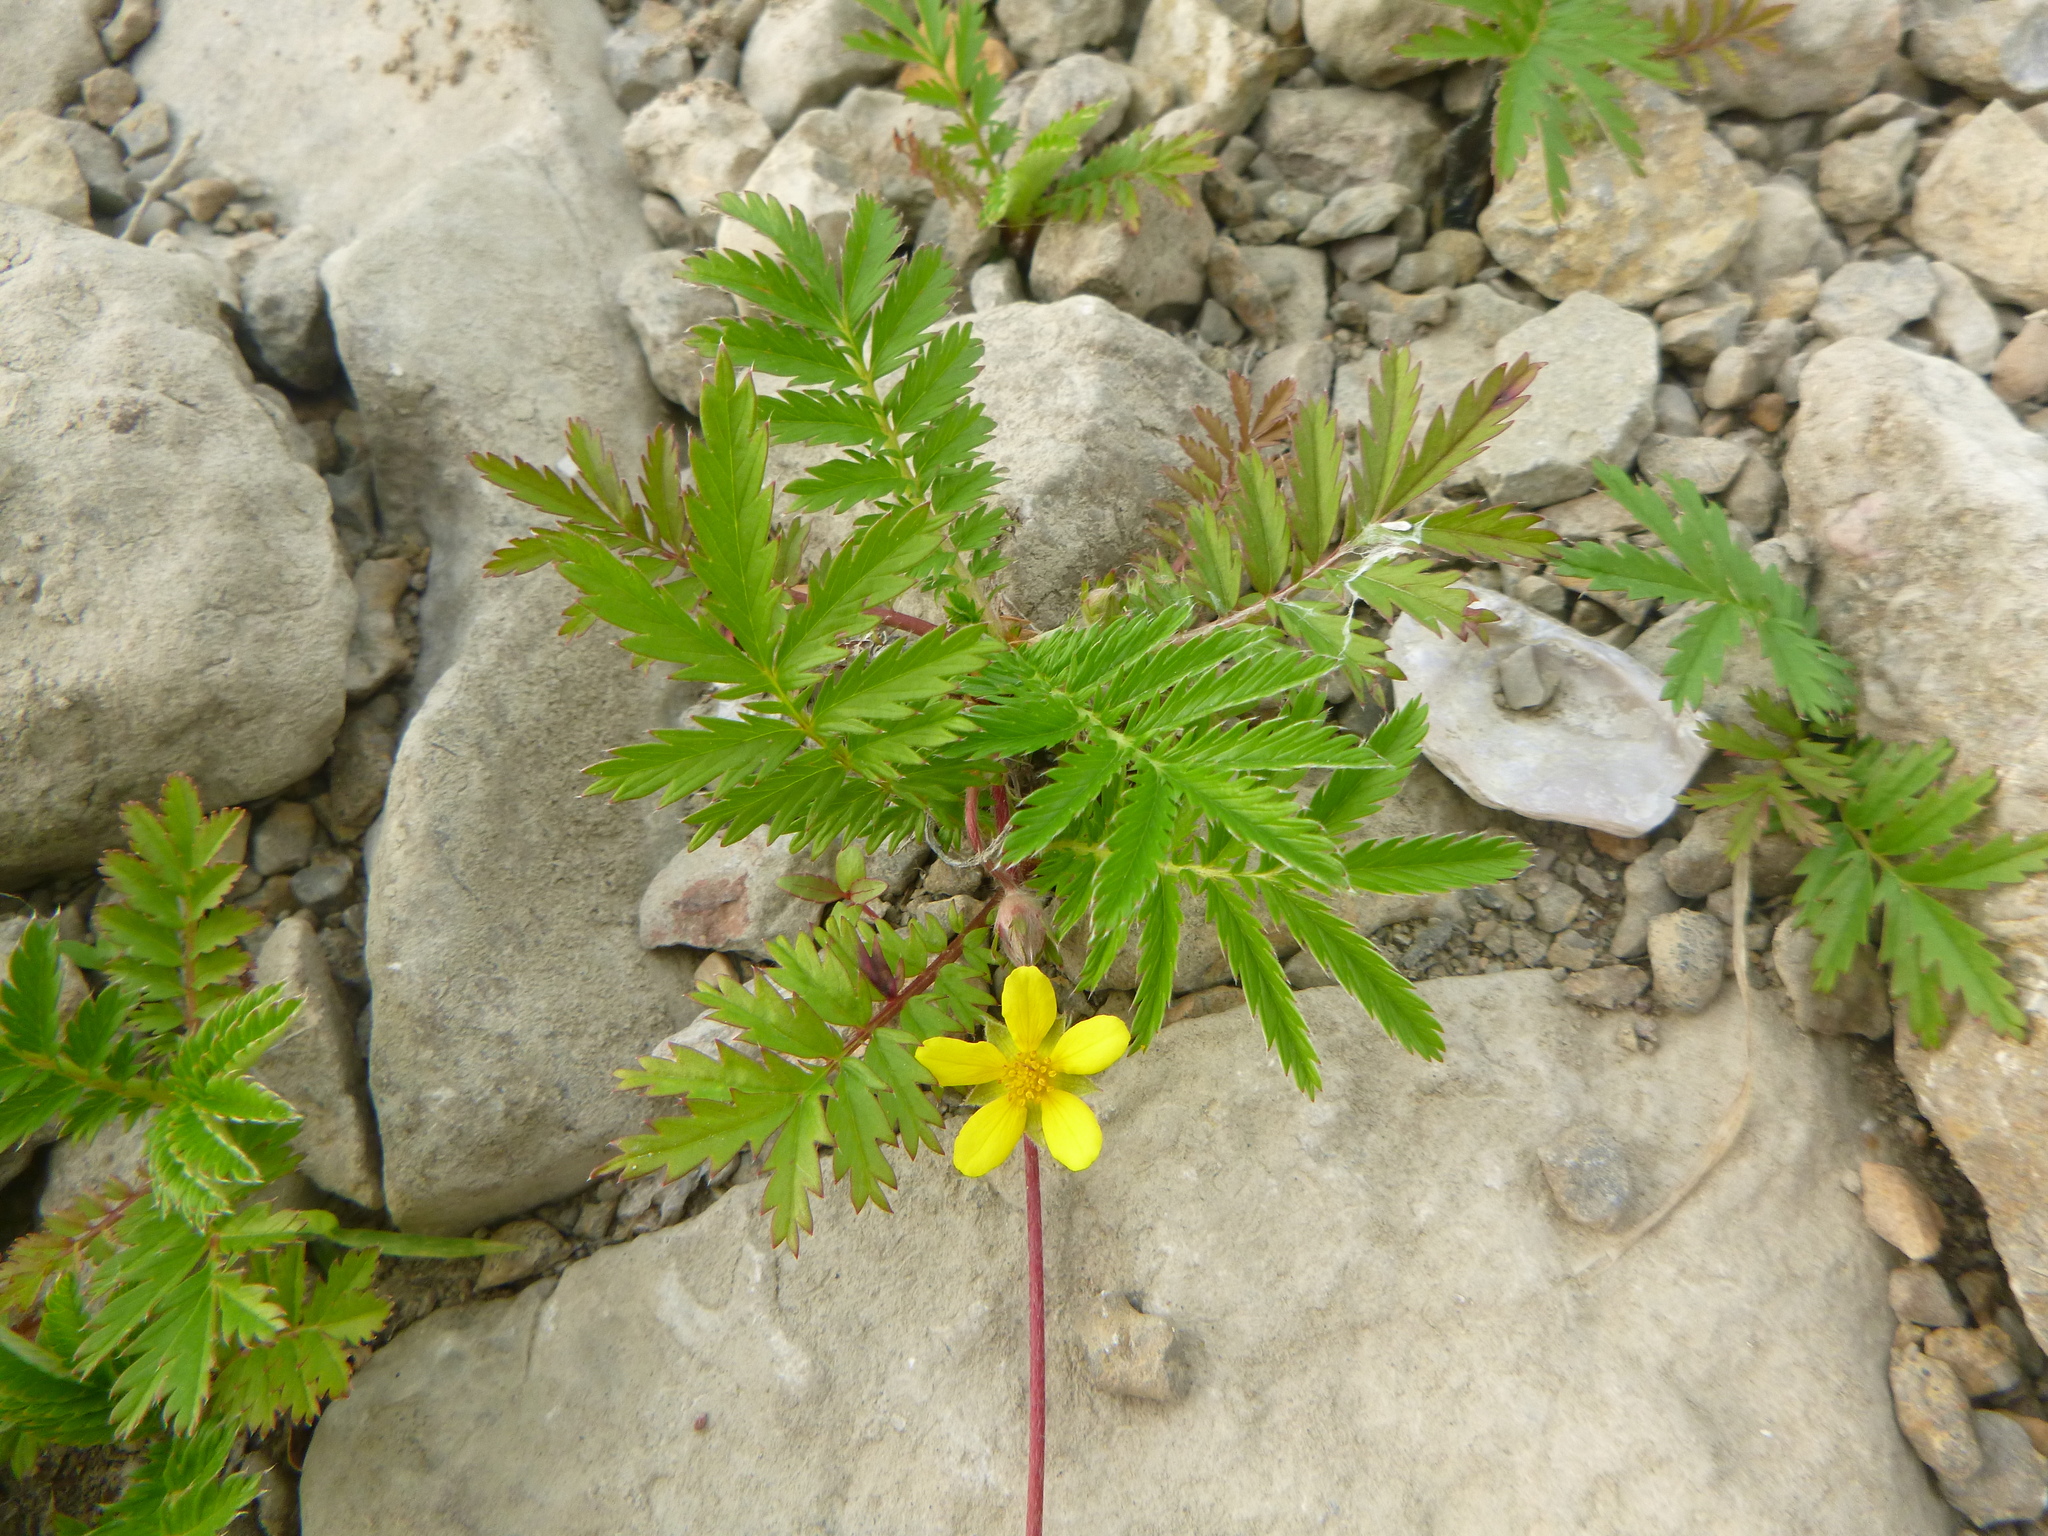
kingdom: Plantae
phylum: Tracheophyta
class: Magnoliopsida
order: Rosales
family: Rosaceae
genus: Argentina
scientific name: Argentina anserina
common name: Common silverweed
